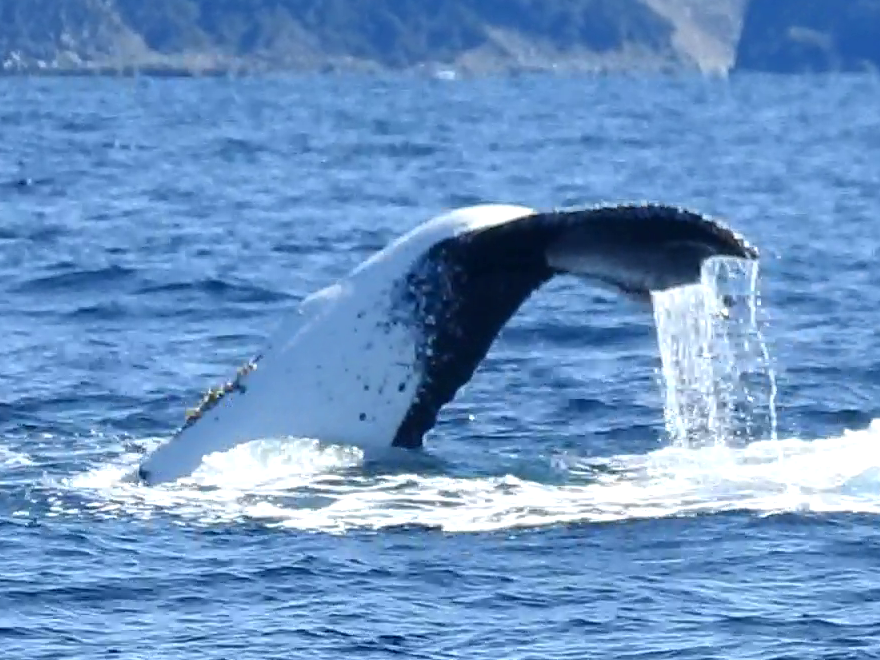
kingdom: Animalia
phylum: Chordata
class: Mammalia
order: Cetacea
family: Balaenopteridae
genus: Megaptera
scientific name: Megaptera novaeangliae
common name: Humpback whale
